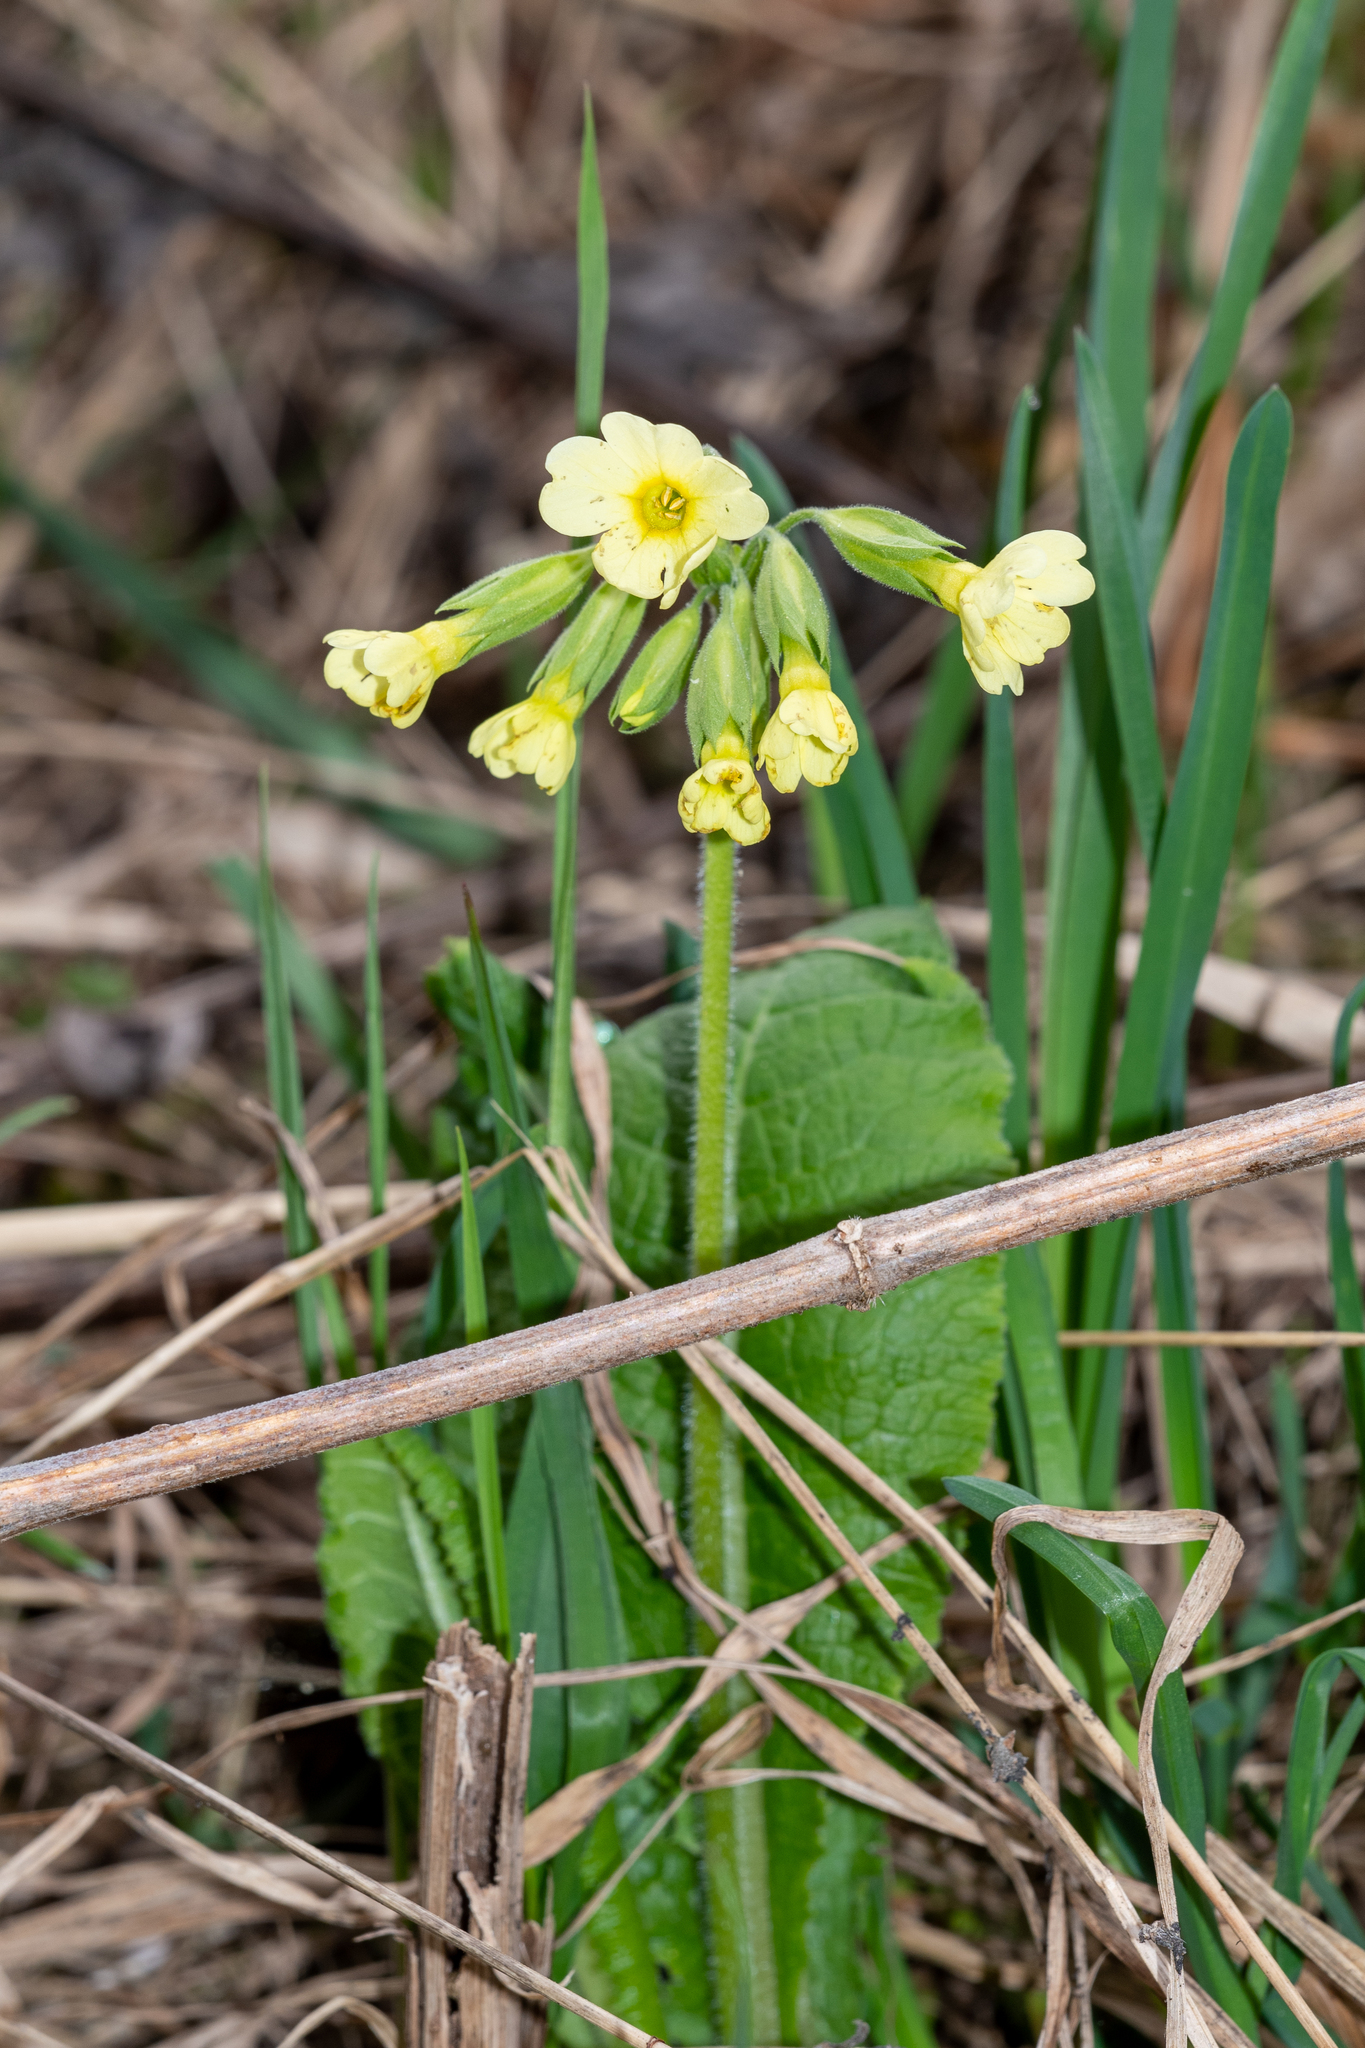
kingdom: Plantae
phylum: Tracheophyta
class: Magnoliopsida
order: Ericales
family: Primulaceae
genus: Primula
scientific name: Primula elatior
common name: Oxlip
